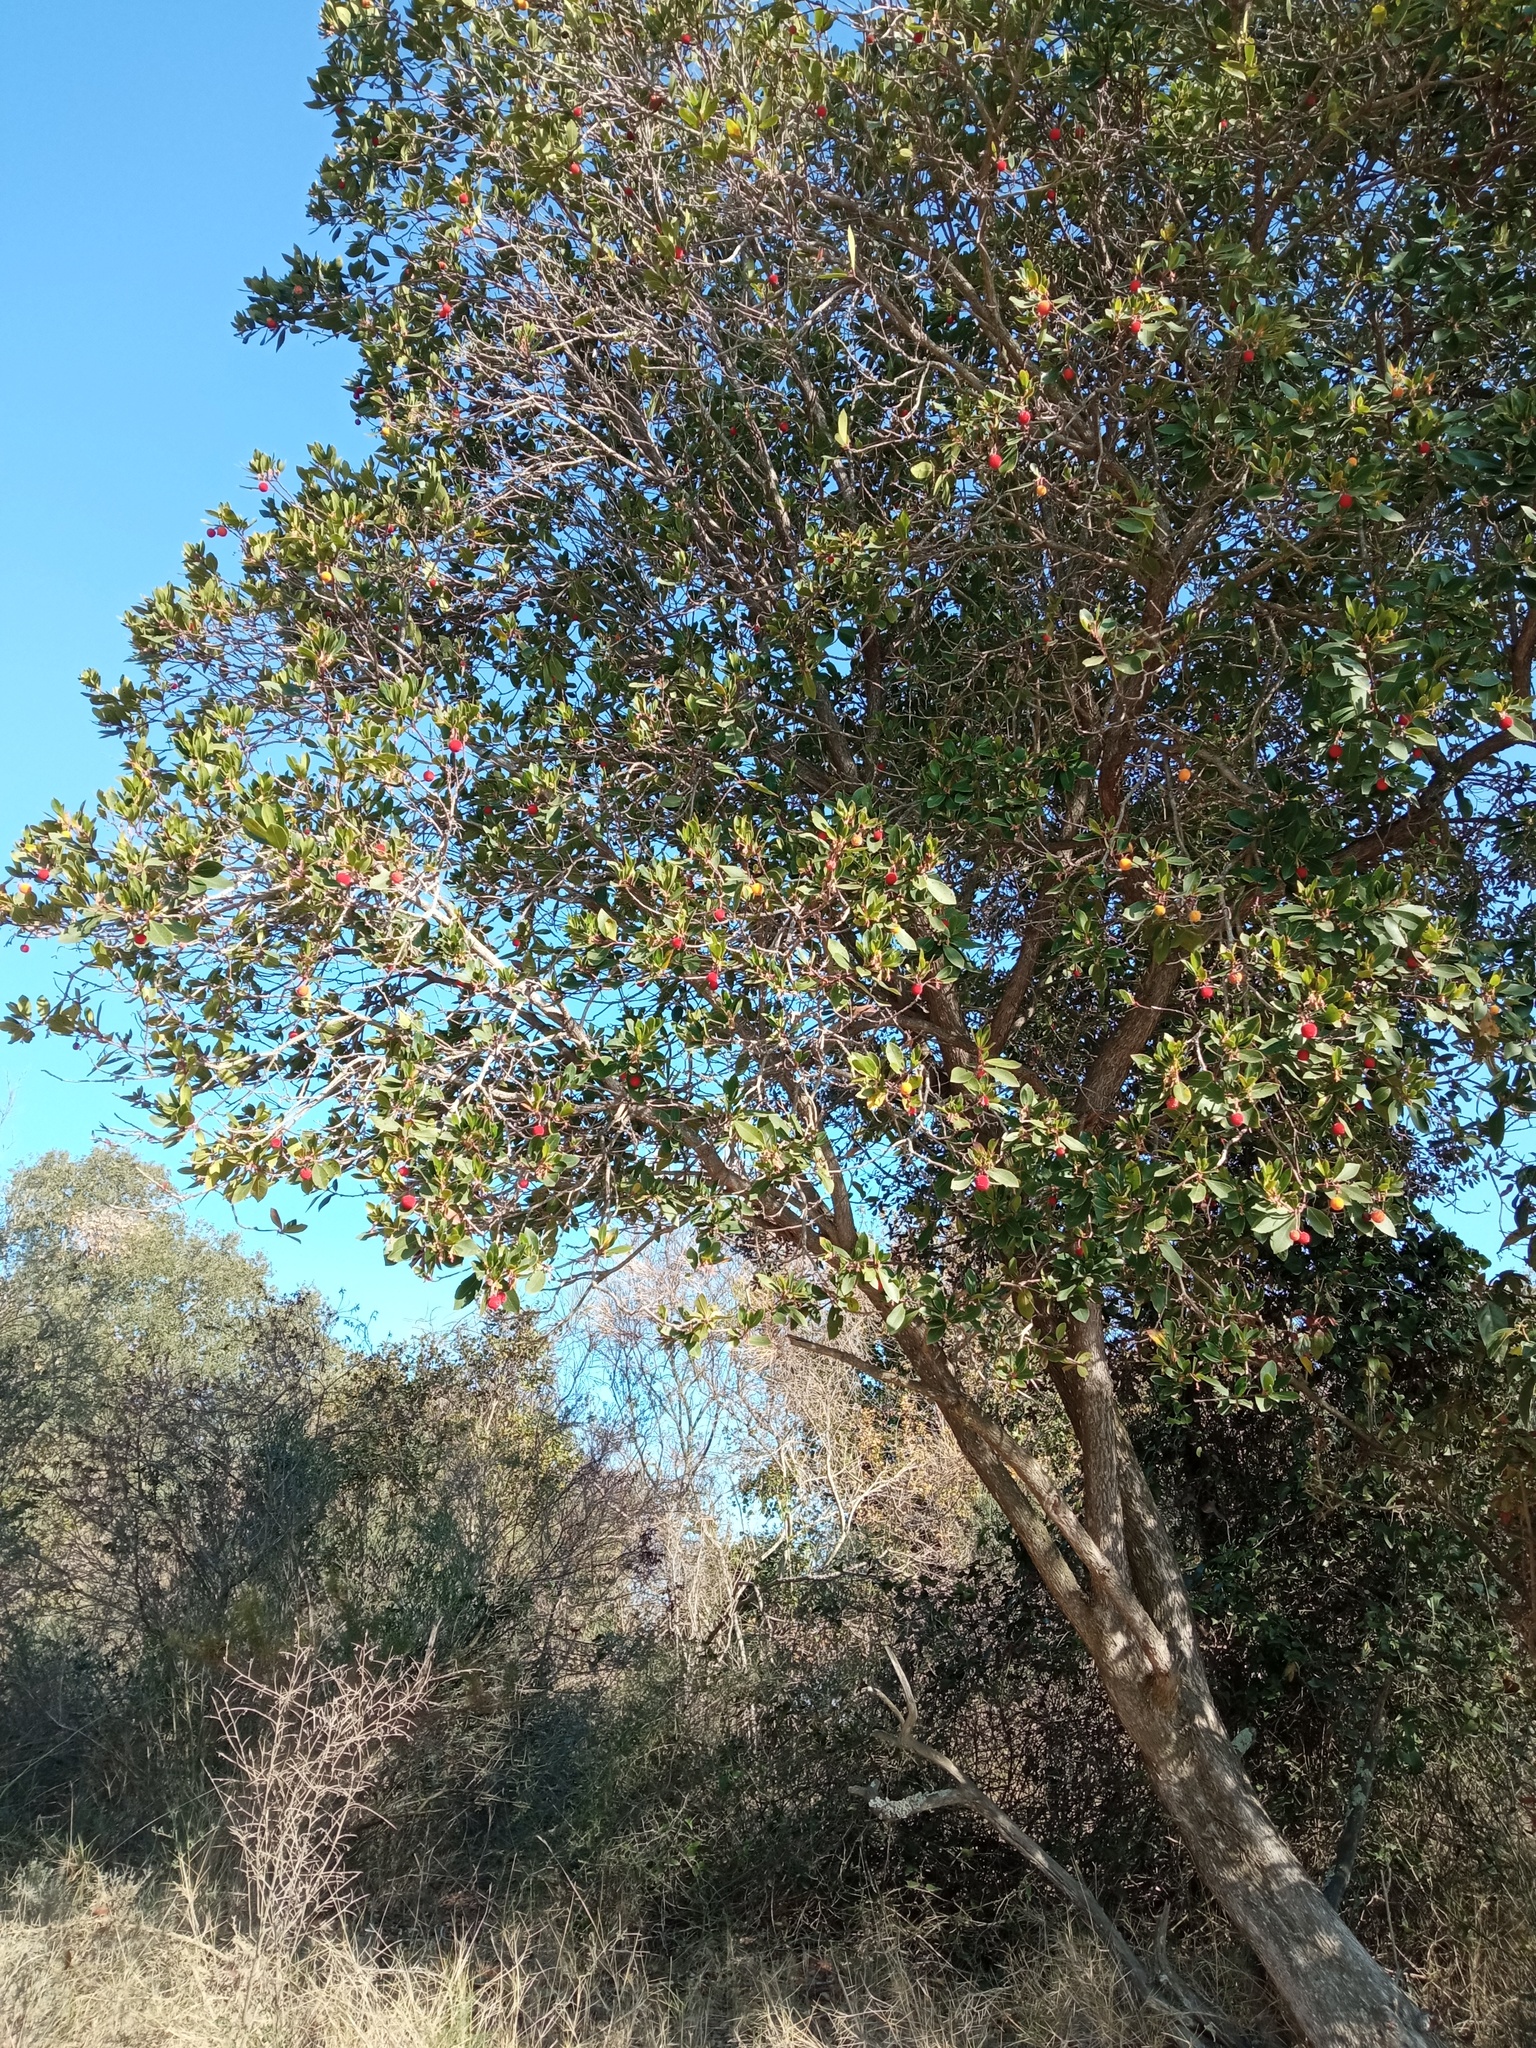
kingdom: Plantae
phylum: Tracheophyta
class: Magnoliopsida
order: Ericales
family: Ericaceae
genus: Arbutus
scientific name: Arbutus unedo
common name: Strawberry-tree
